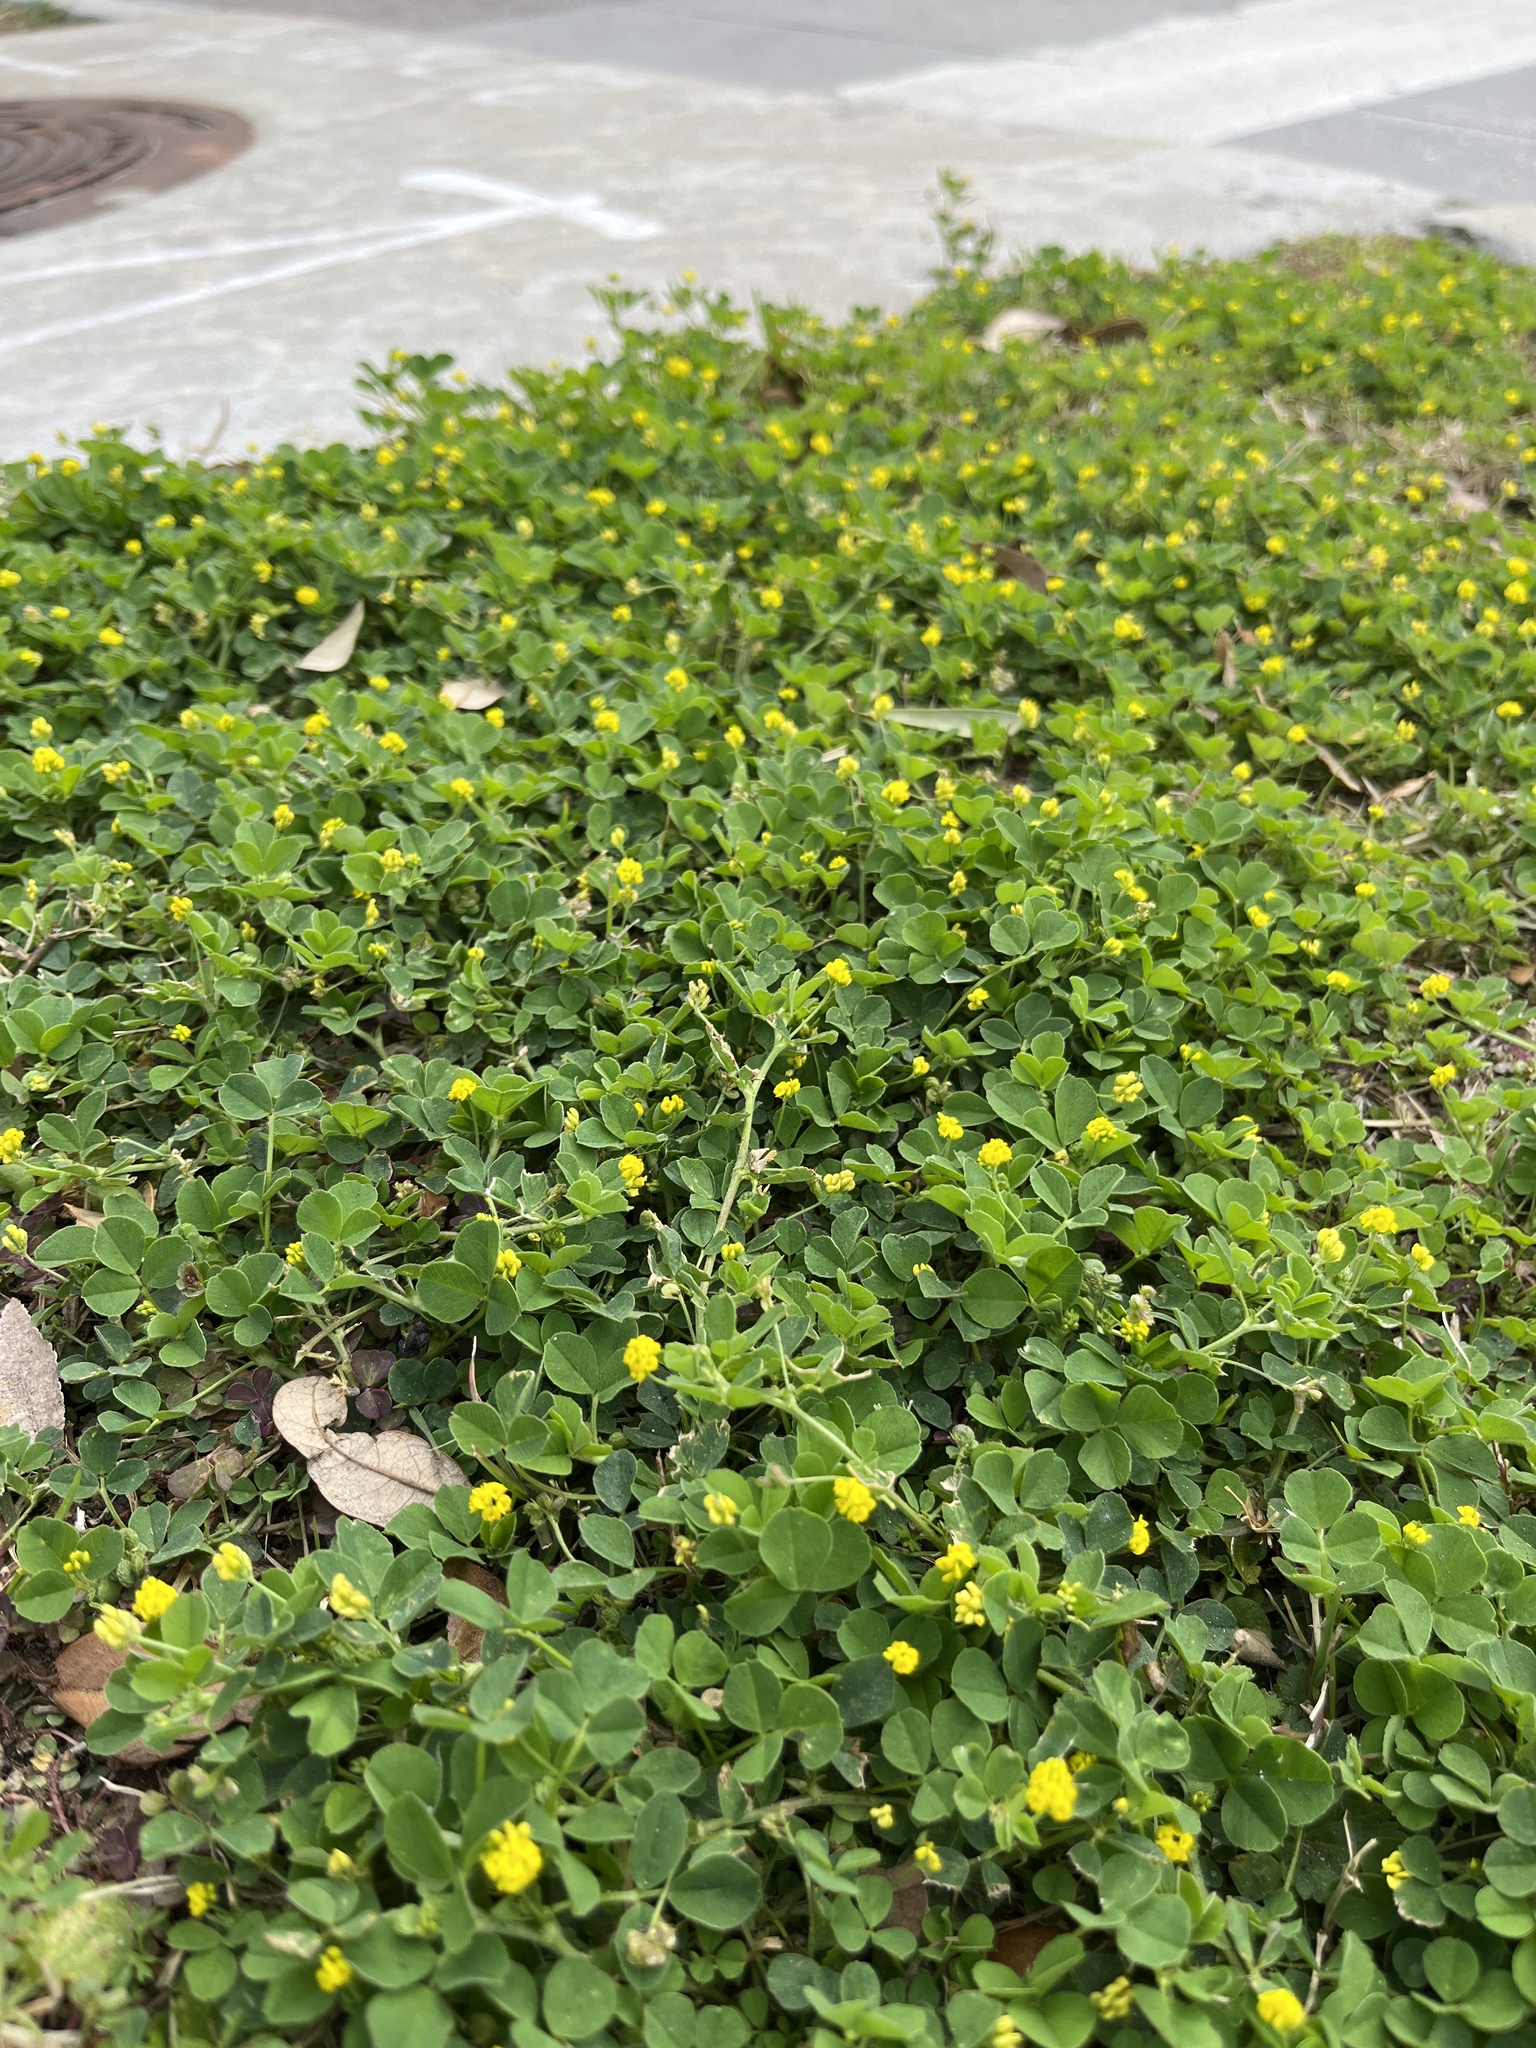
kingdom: Plantae
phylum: Tracheophyta
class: Magnoliopsida
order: Fabales
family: Fabaceae
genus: Medicago
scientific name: Medicago lupulina
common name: Black medick
